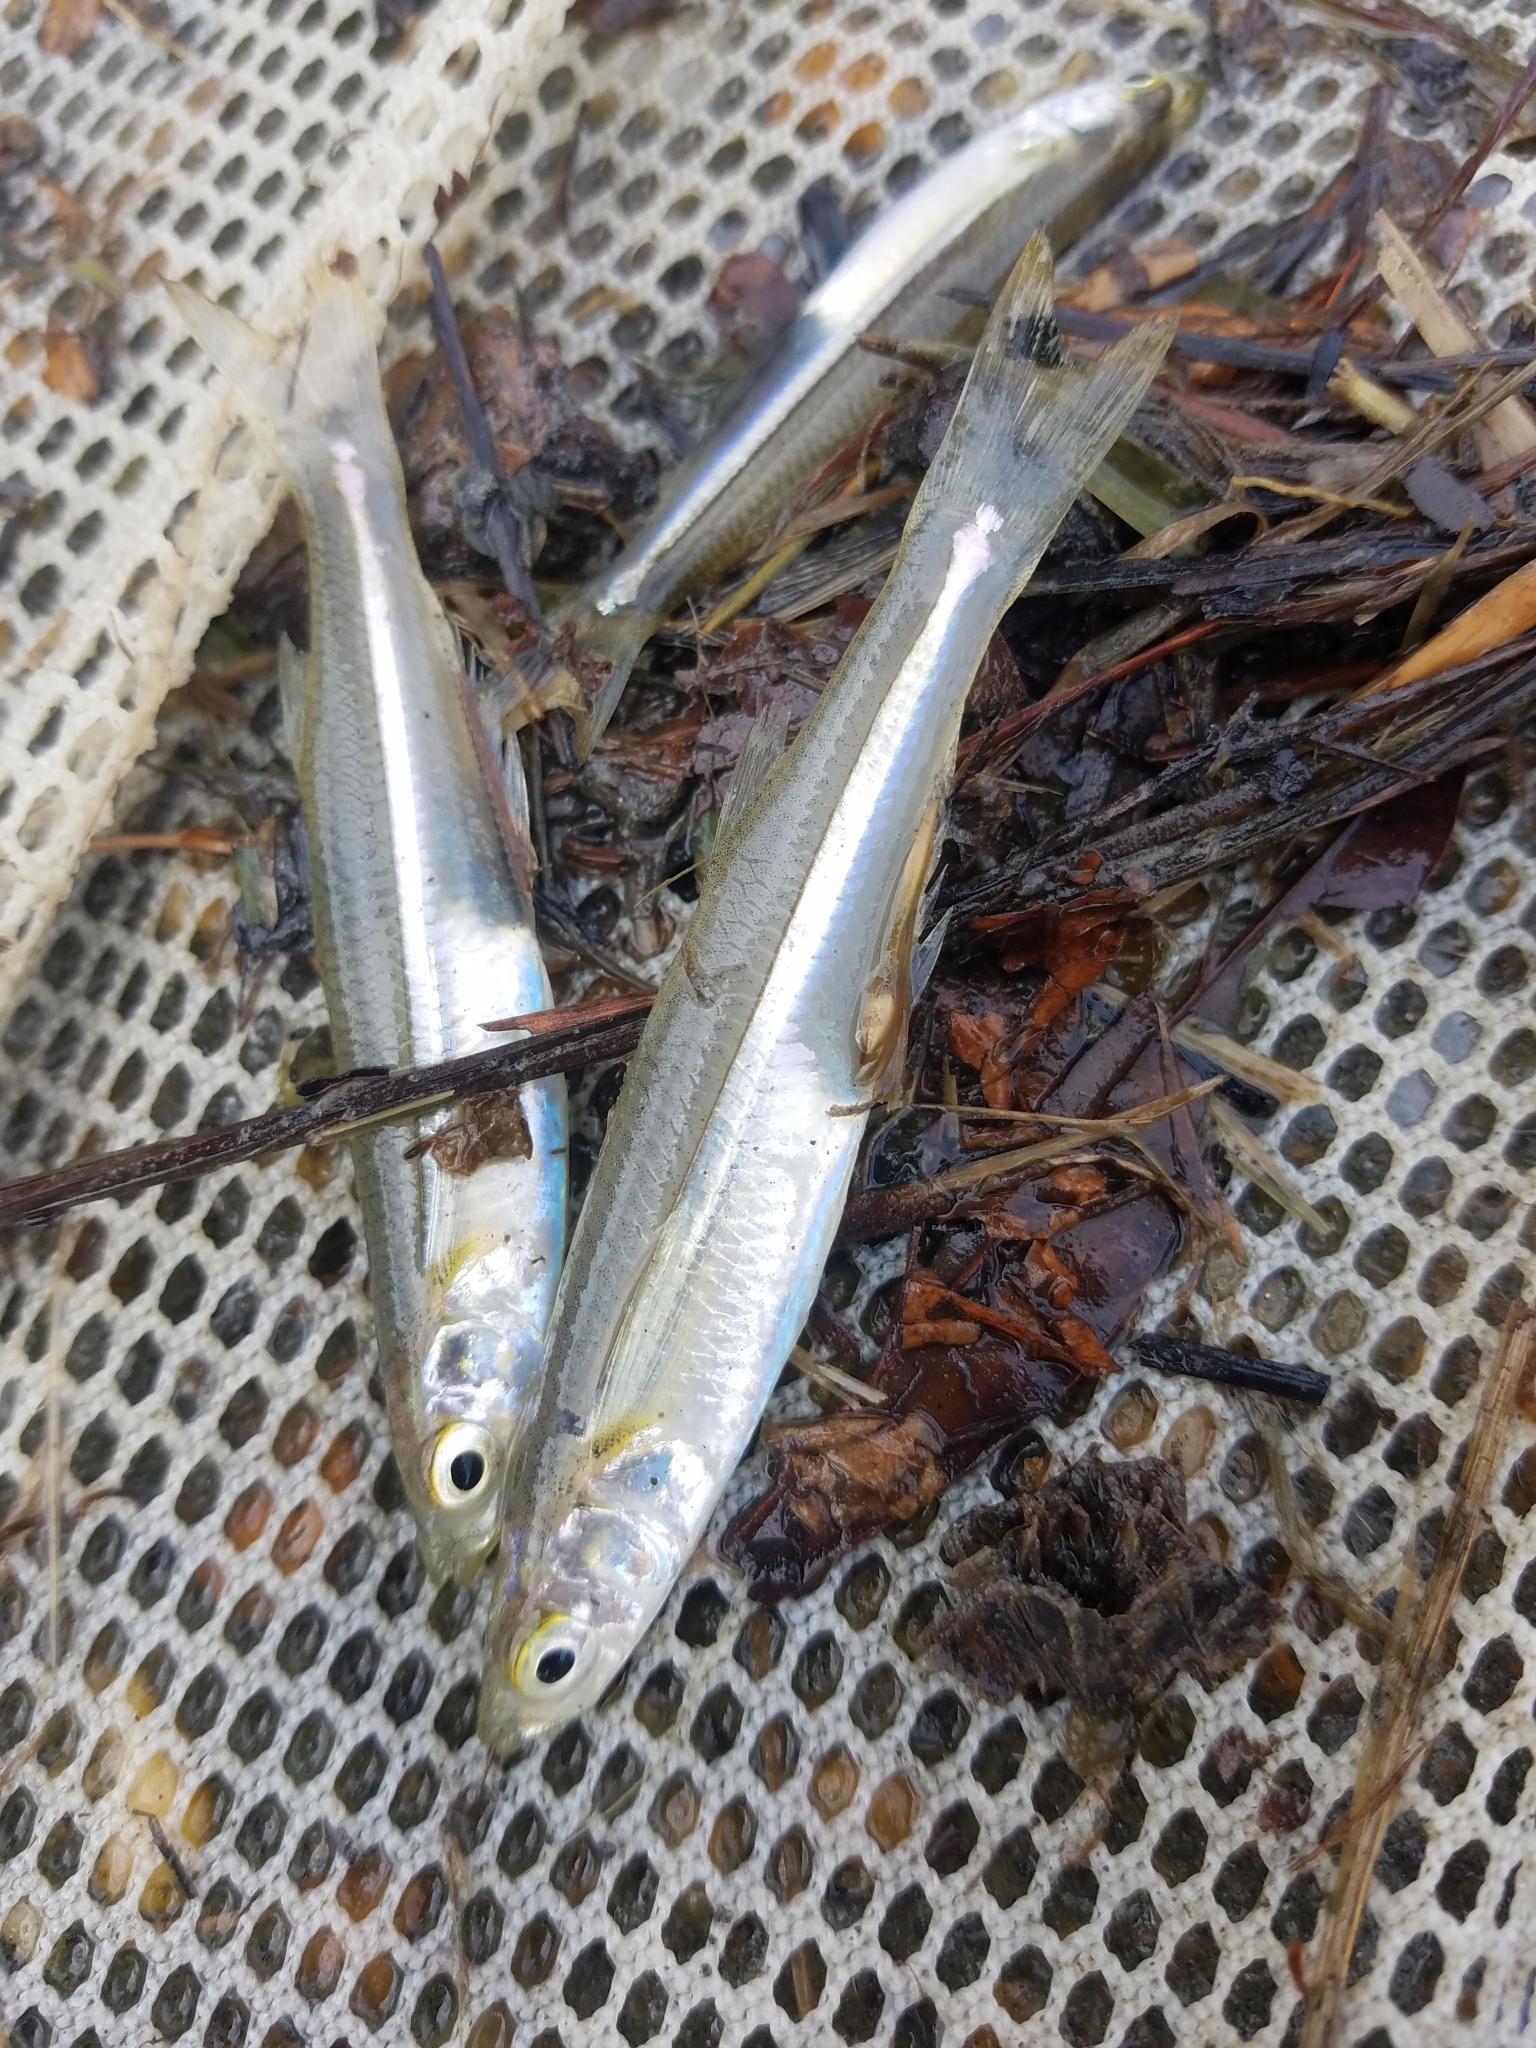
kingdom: Animalia
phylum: Chordata
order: Atheriniformes
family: Atherinopsidae
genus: Menidia
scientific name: Menidia menidia
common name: Atlantic silverside
